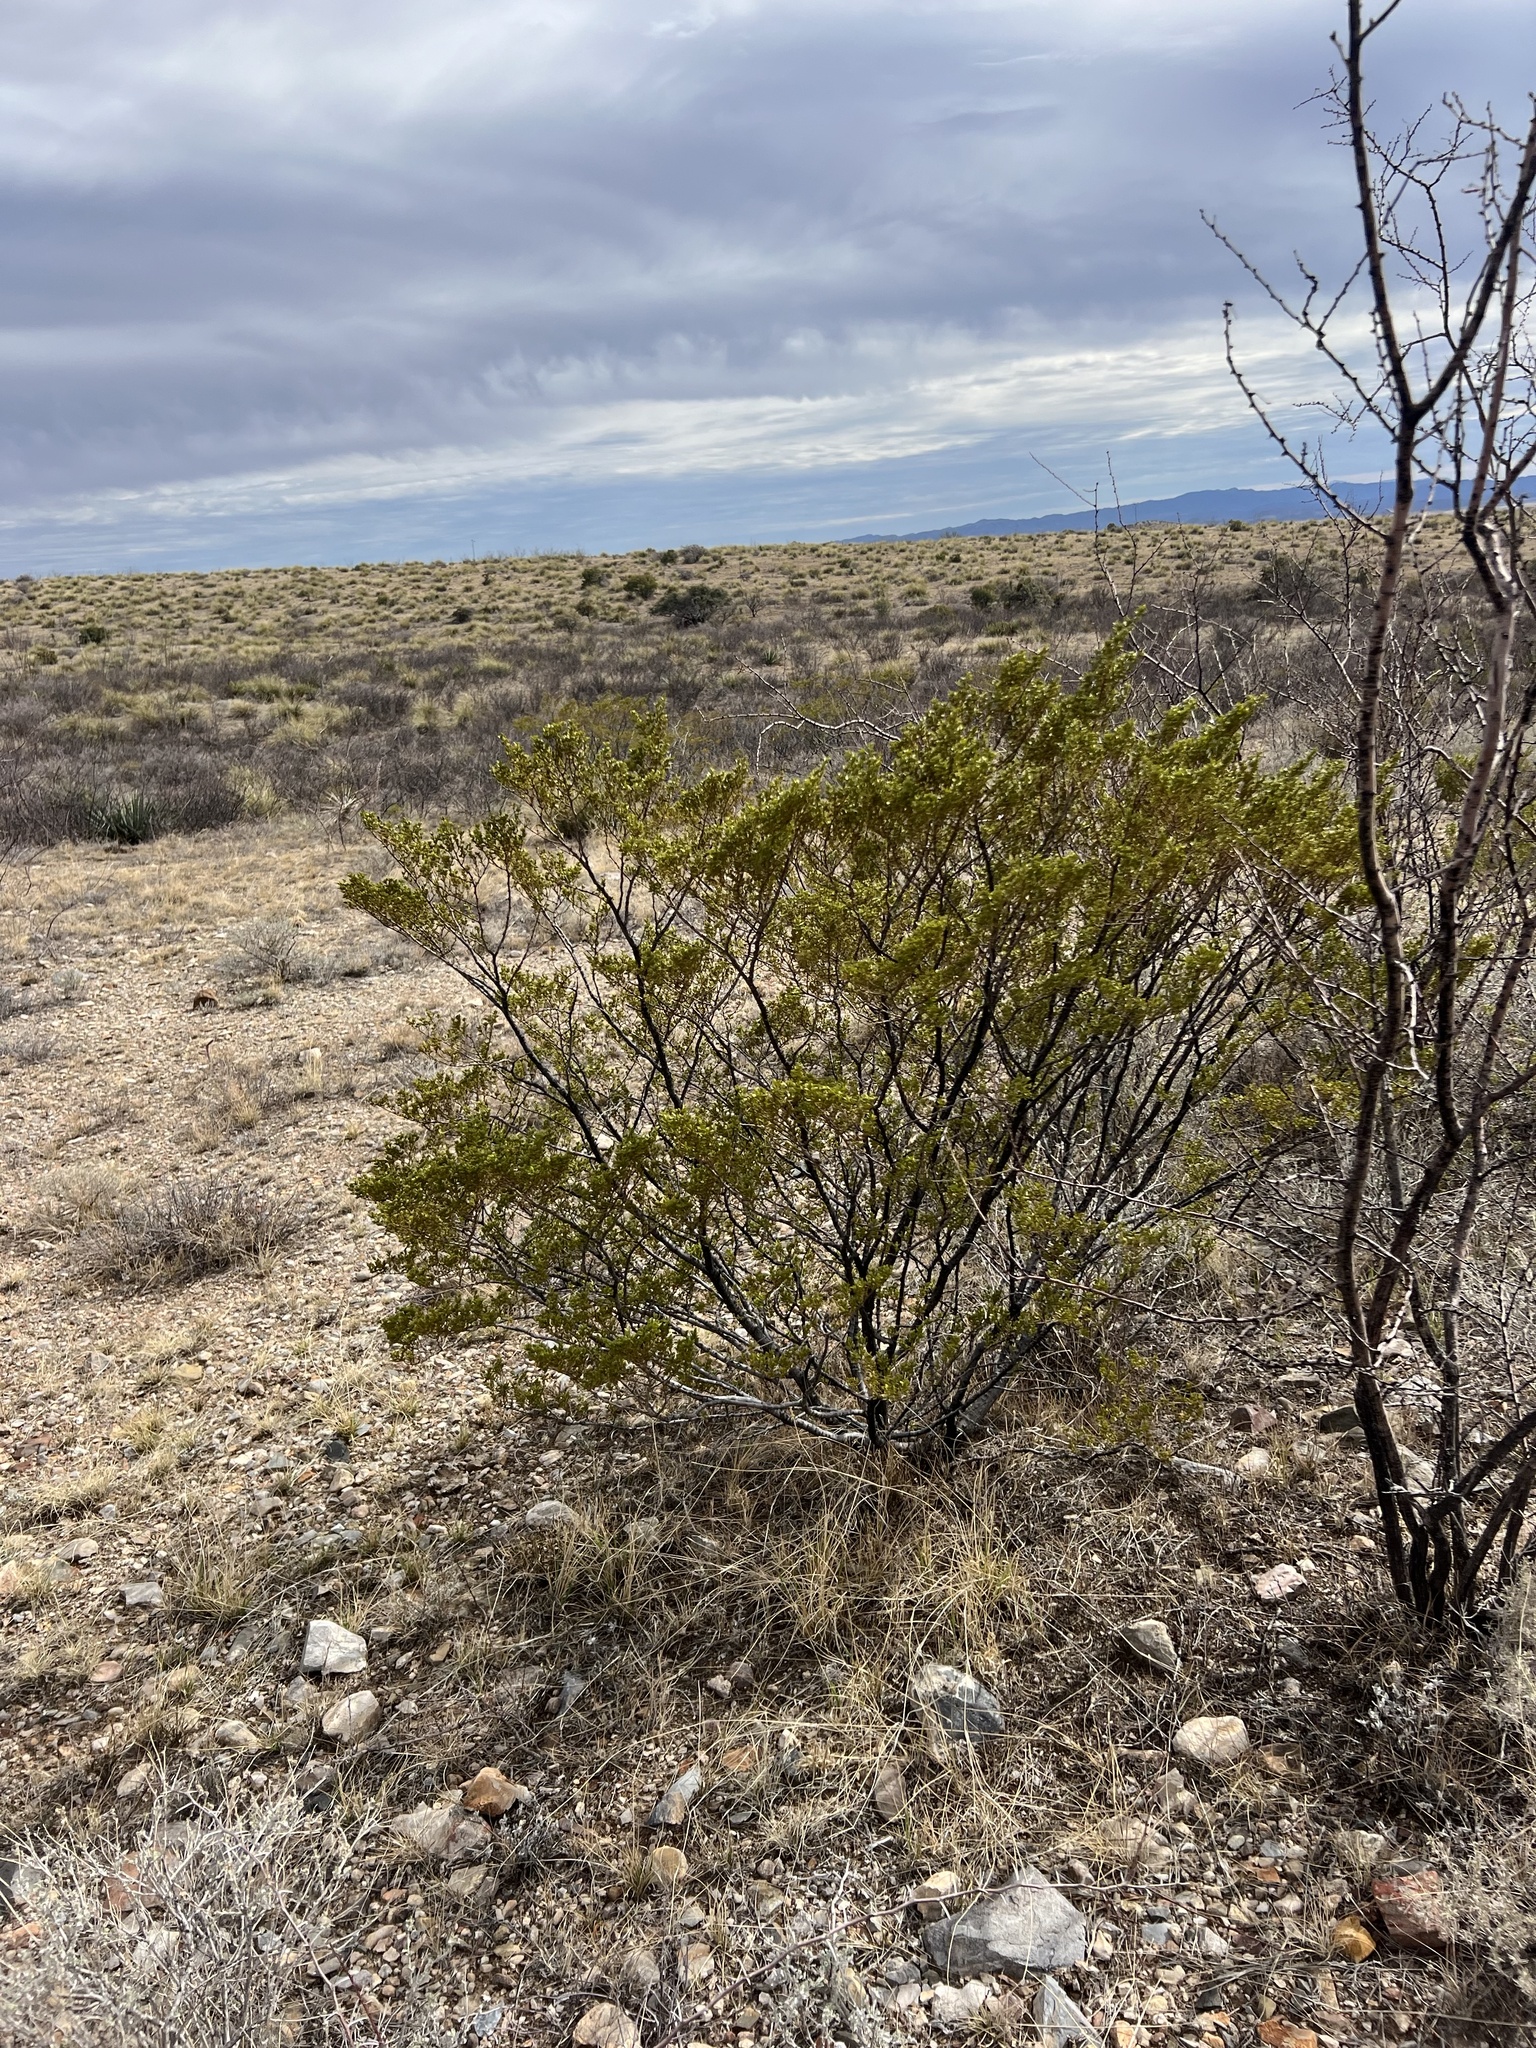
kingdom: Plantae
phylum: Tracheophyta
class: Magnoliopsida
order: Zygophyllales
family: Zygophyllaceae
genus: Larrea
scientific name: Larrea tridentata
